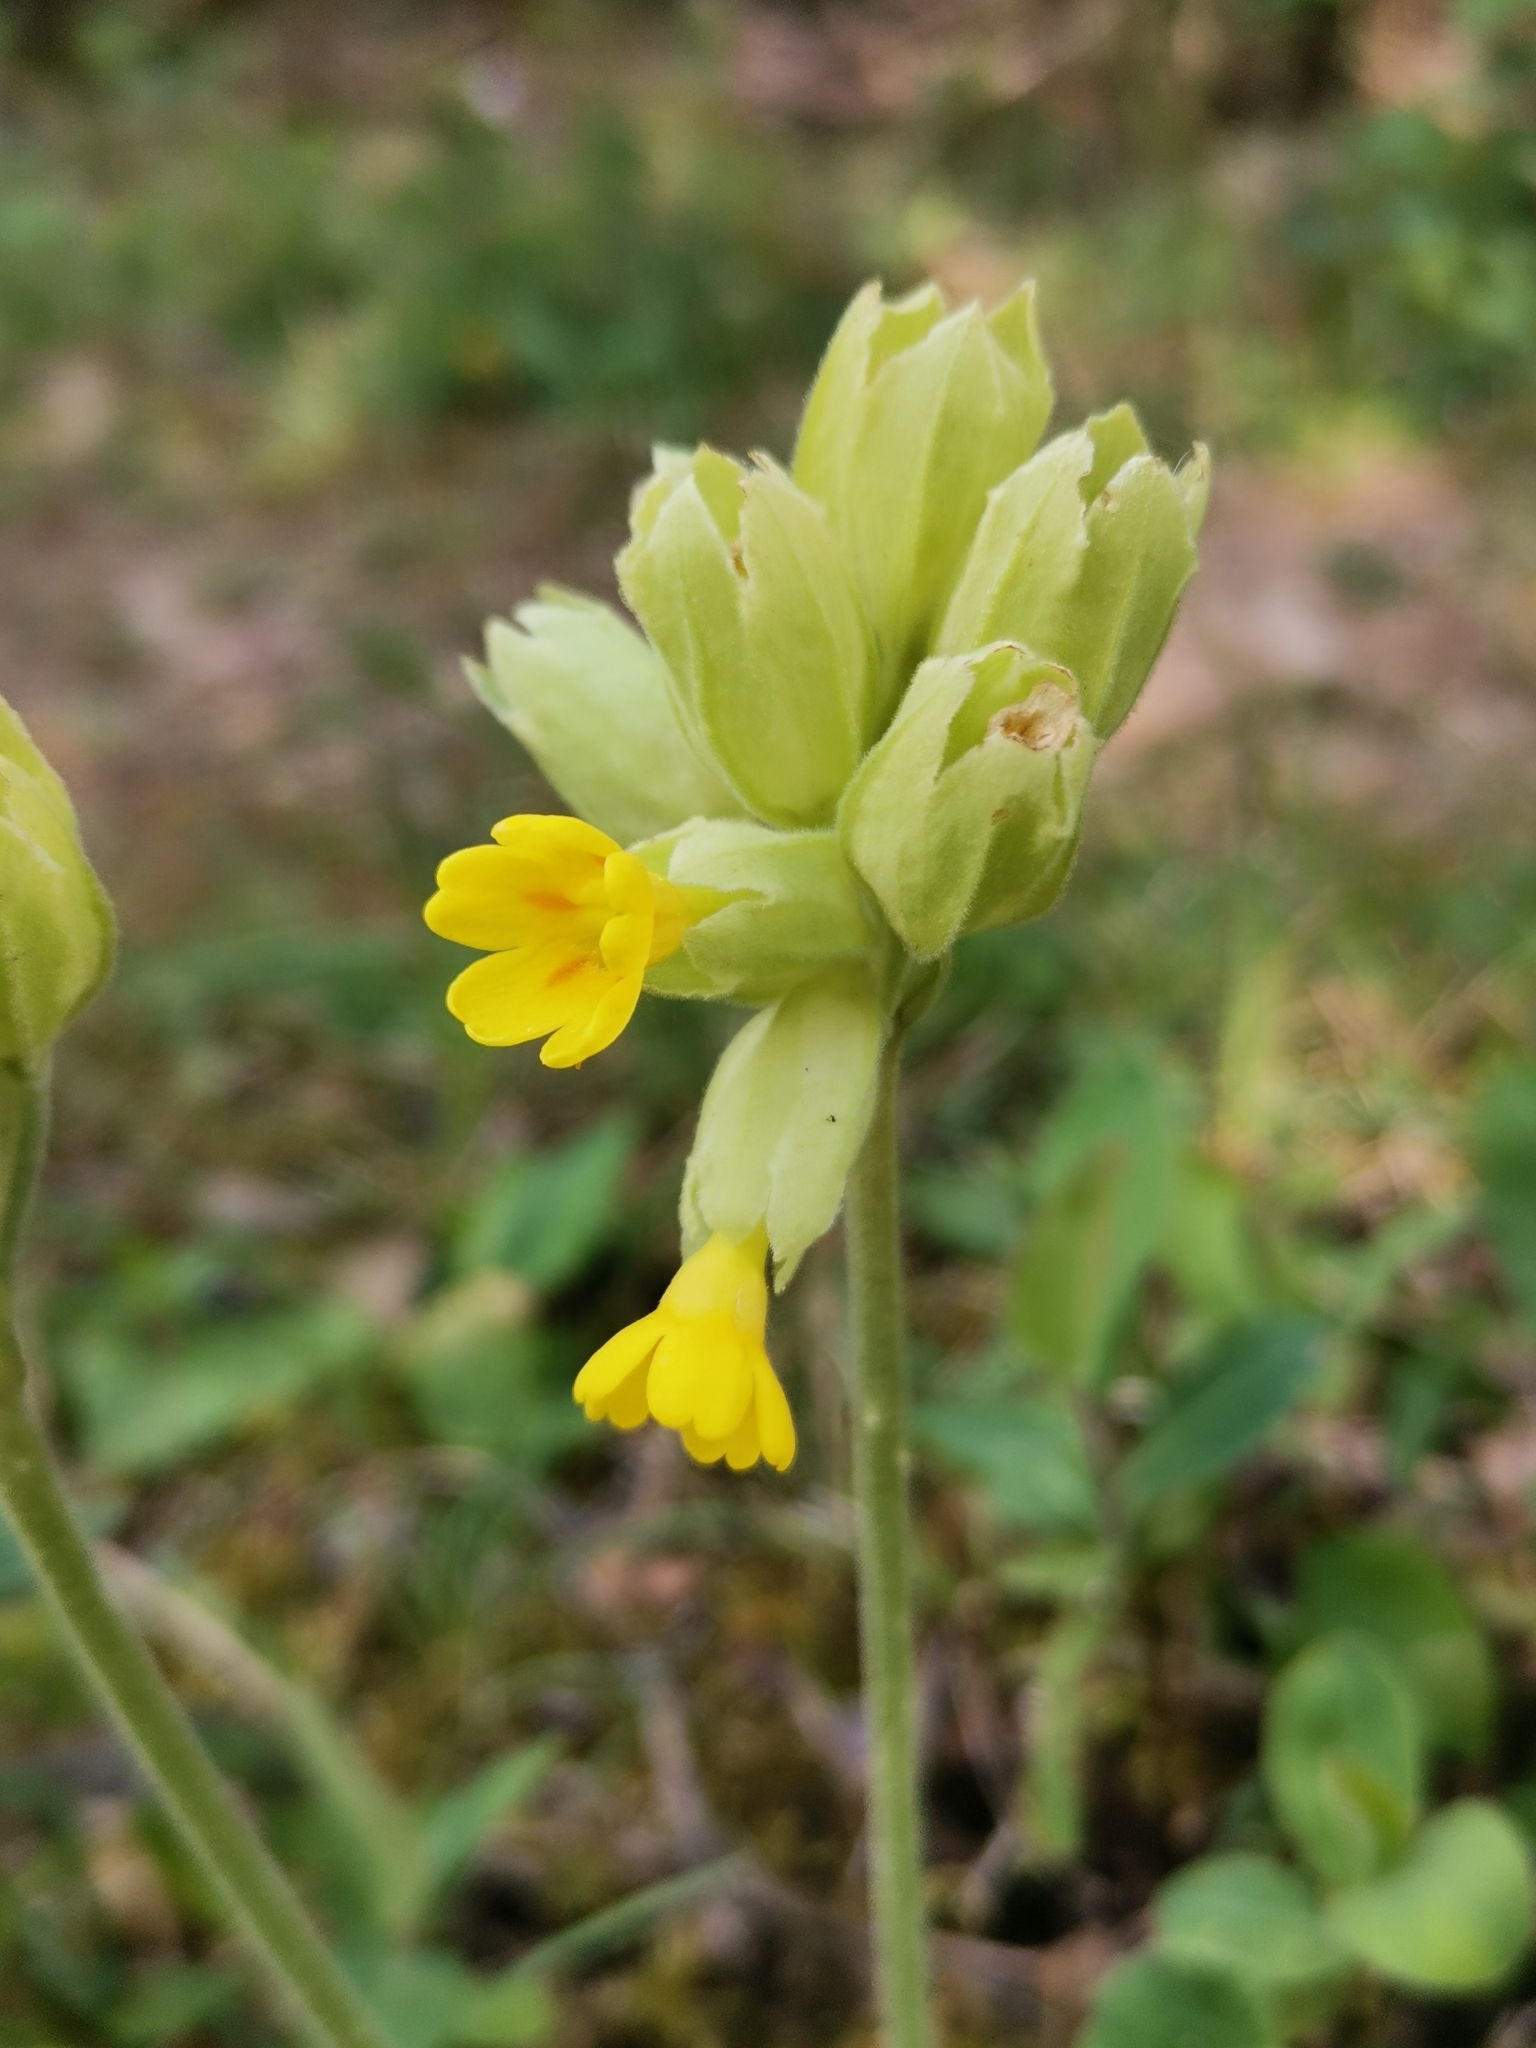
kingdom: Plantae
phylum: Tracheophyta
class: Magnoliopsida
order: Ericales
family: Primulaceae
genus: Primula
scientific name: Primula veris
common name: Cowslip
